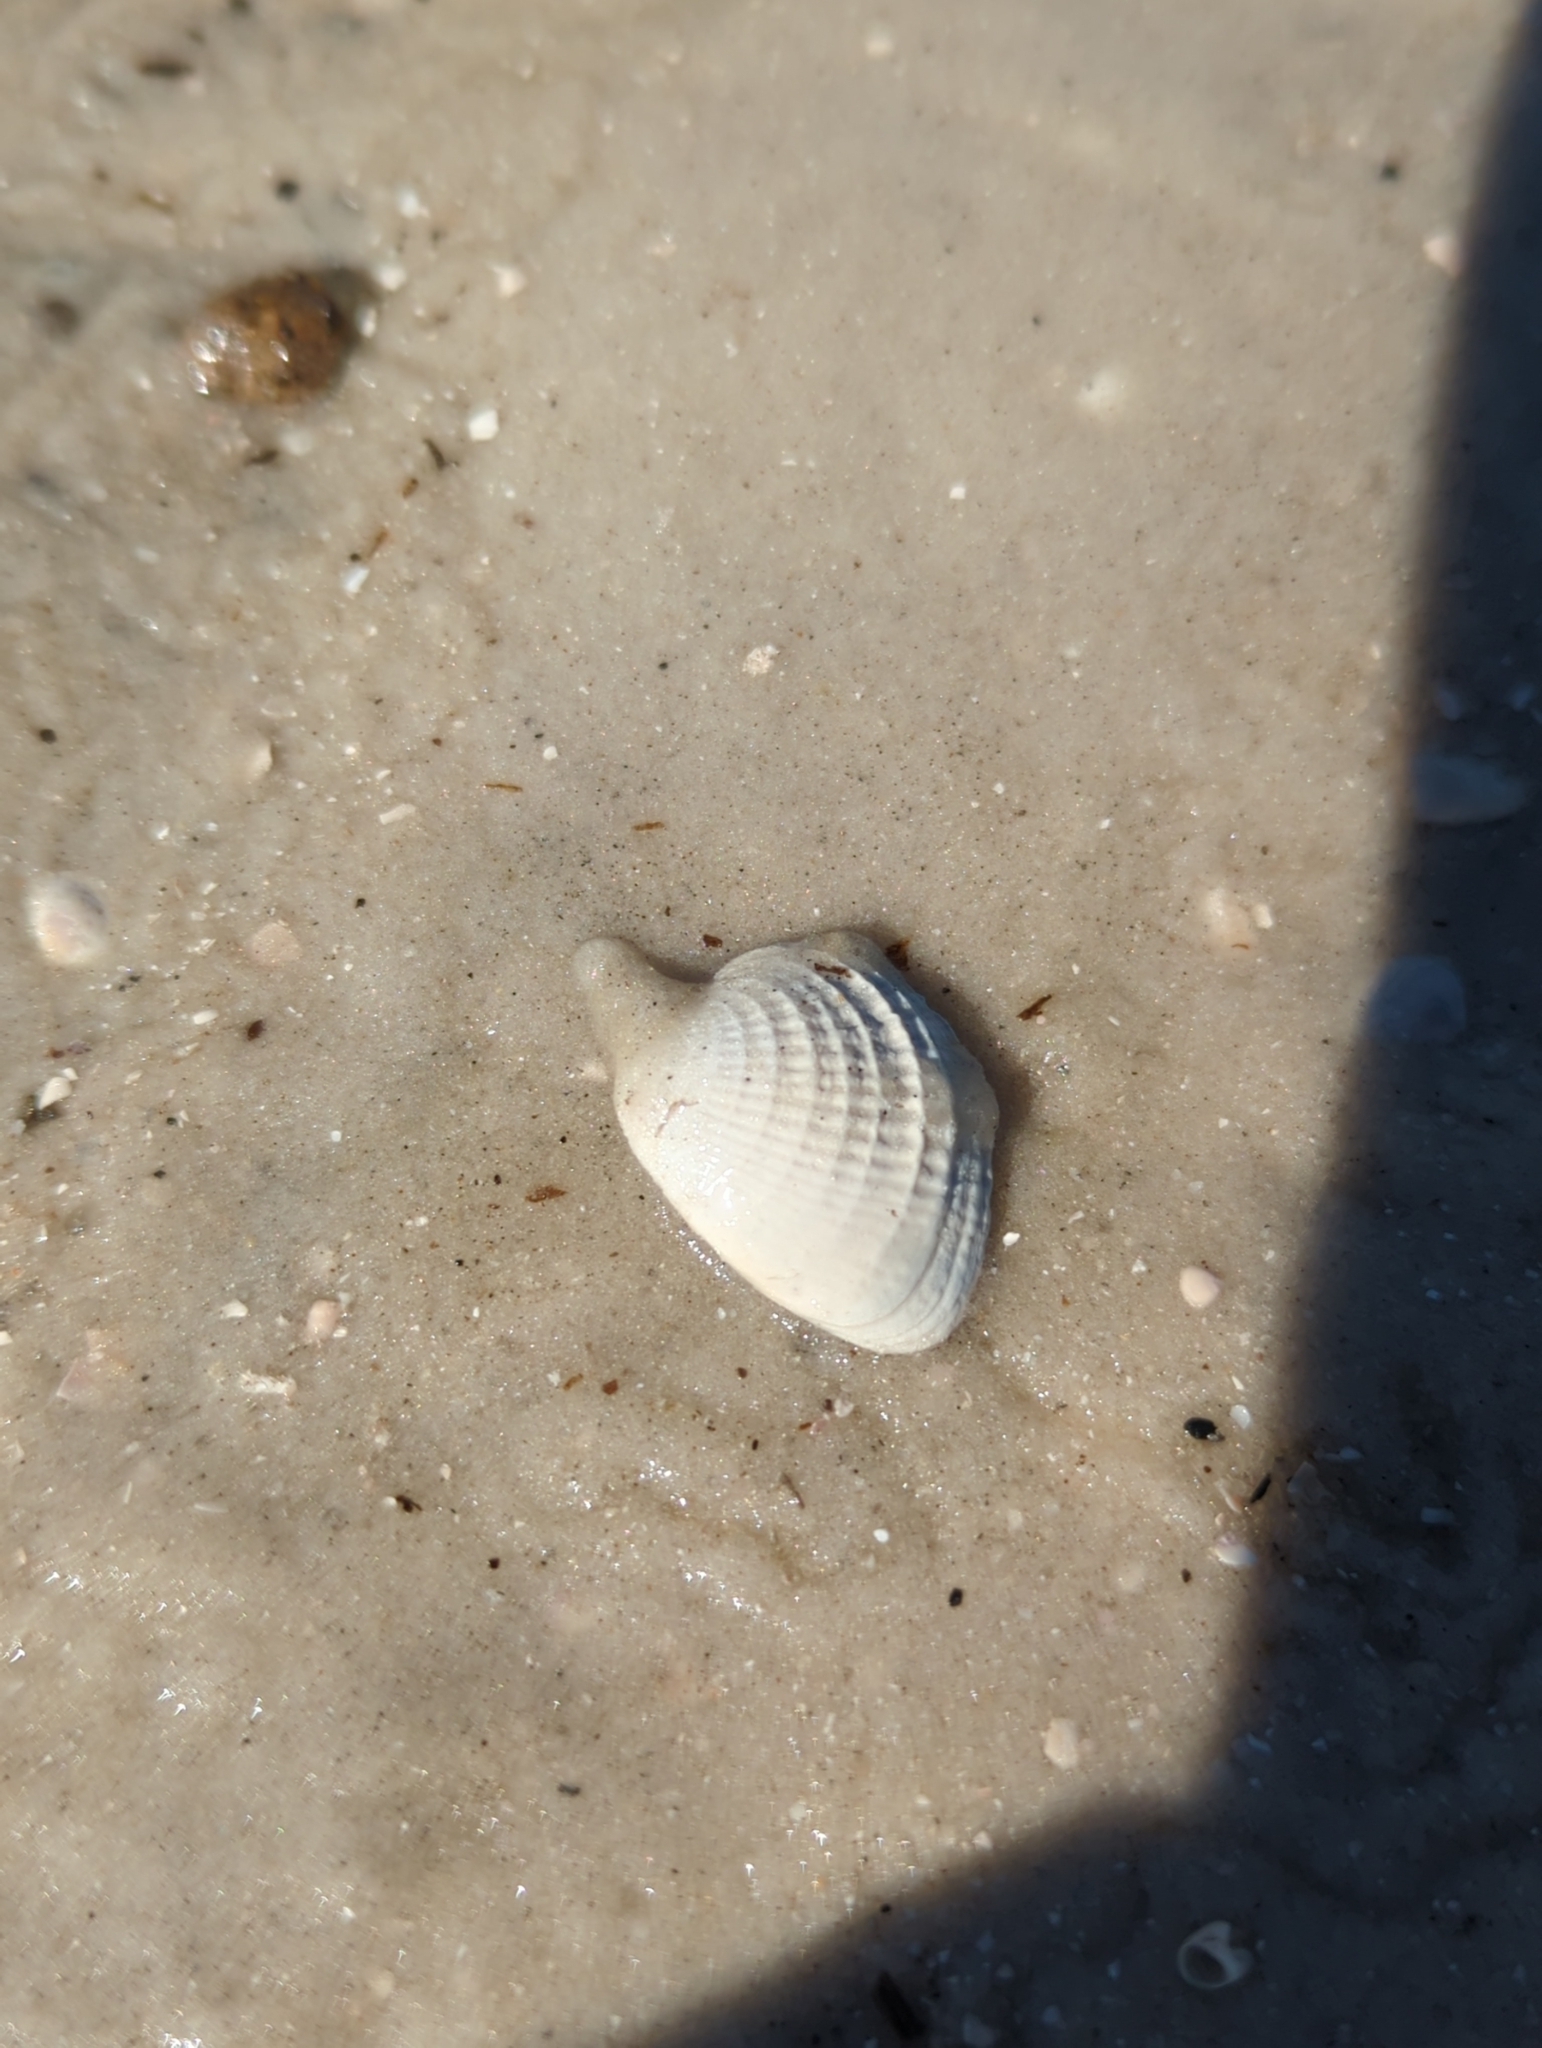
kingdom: Animalia
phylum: Mollusca
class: Bivalvia
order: Venerida
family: Veneridae
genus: Chione
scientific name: Chione elevata
